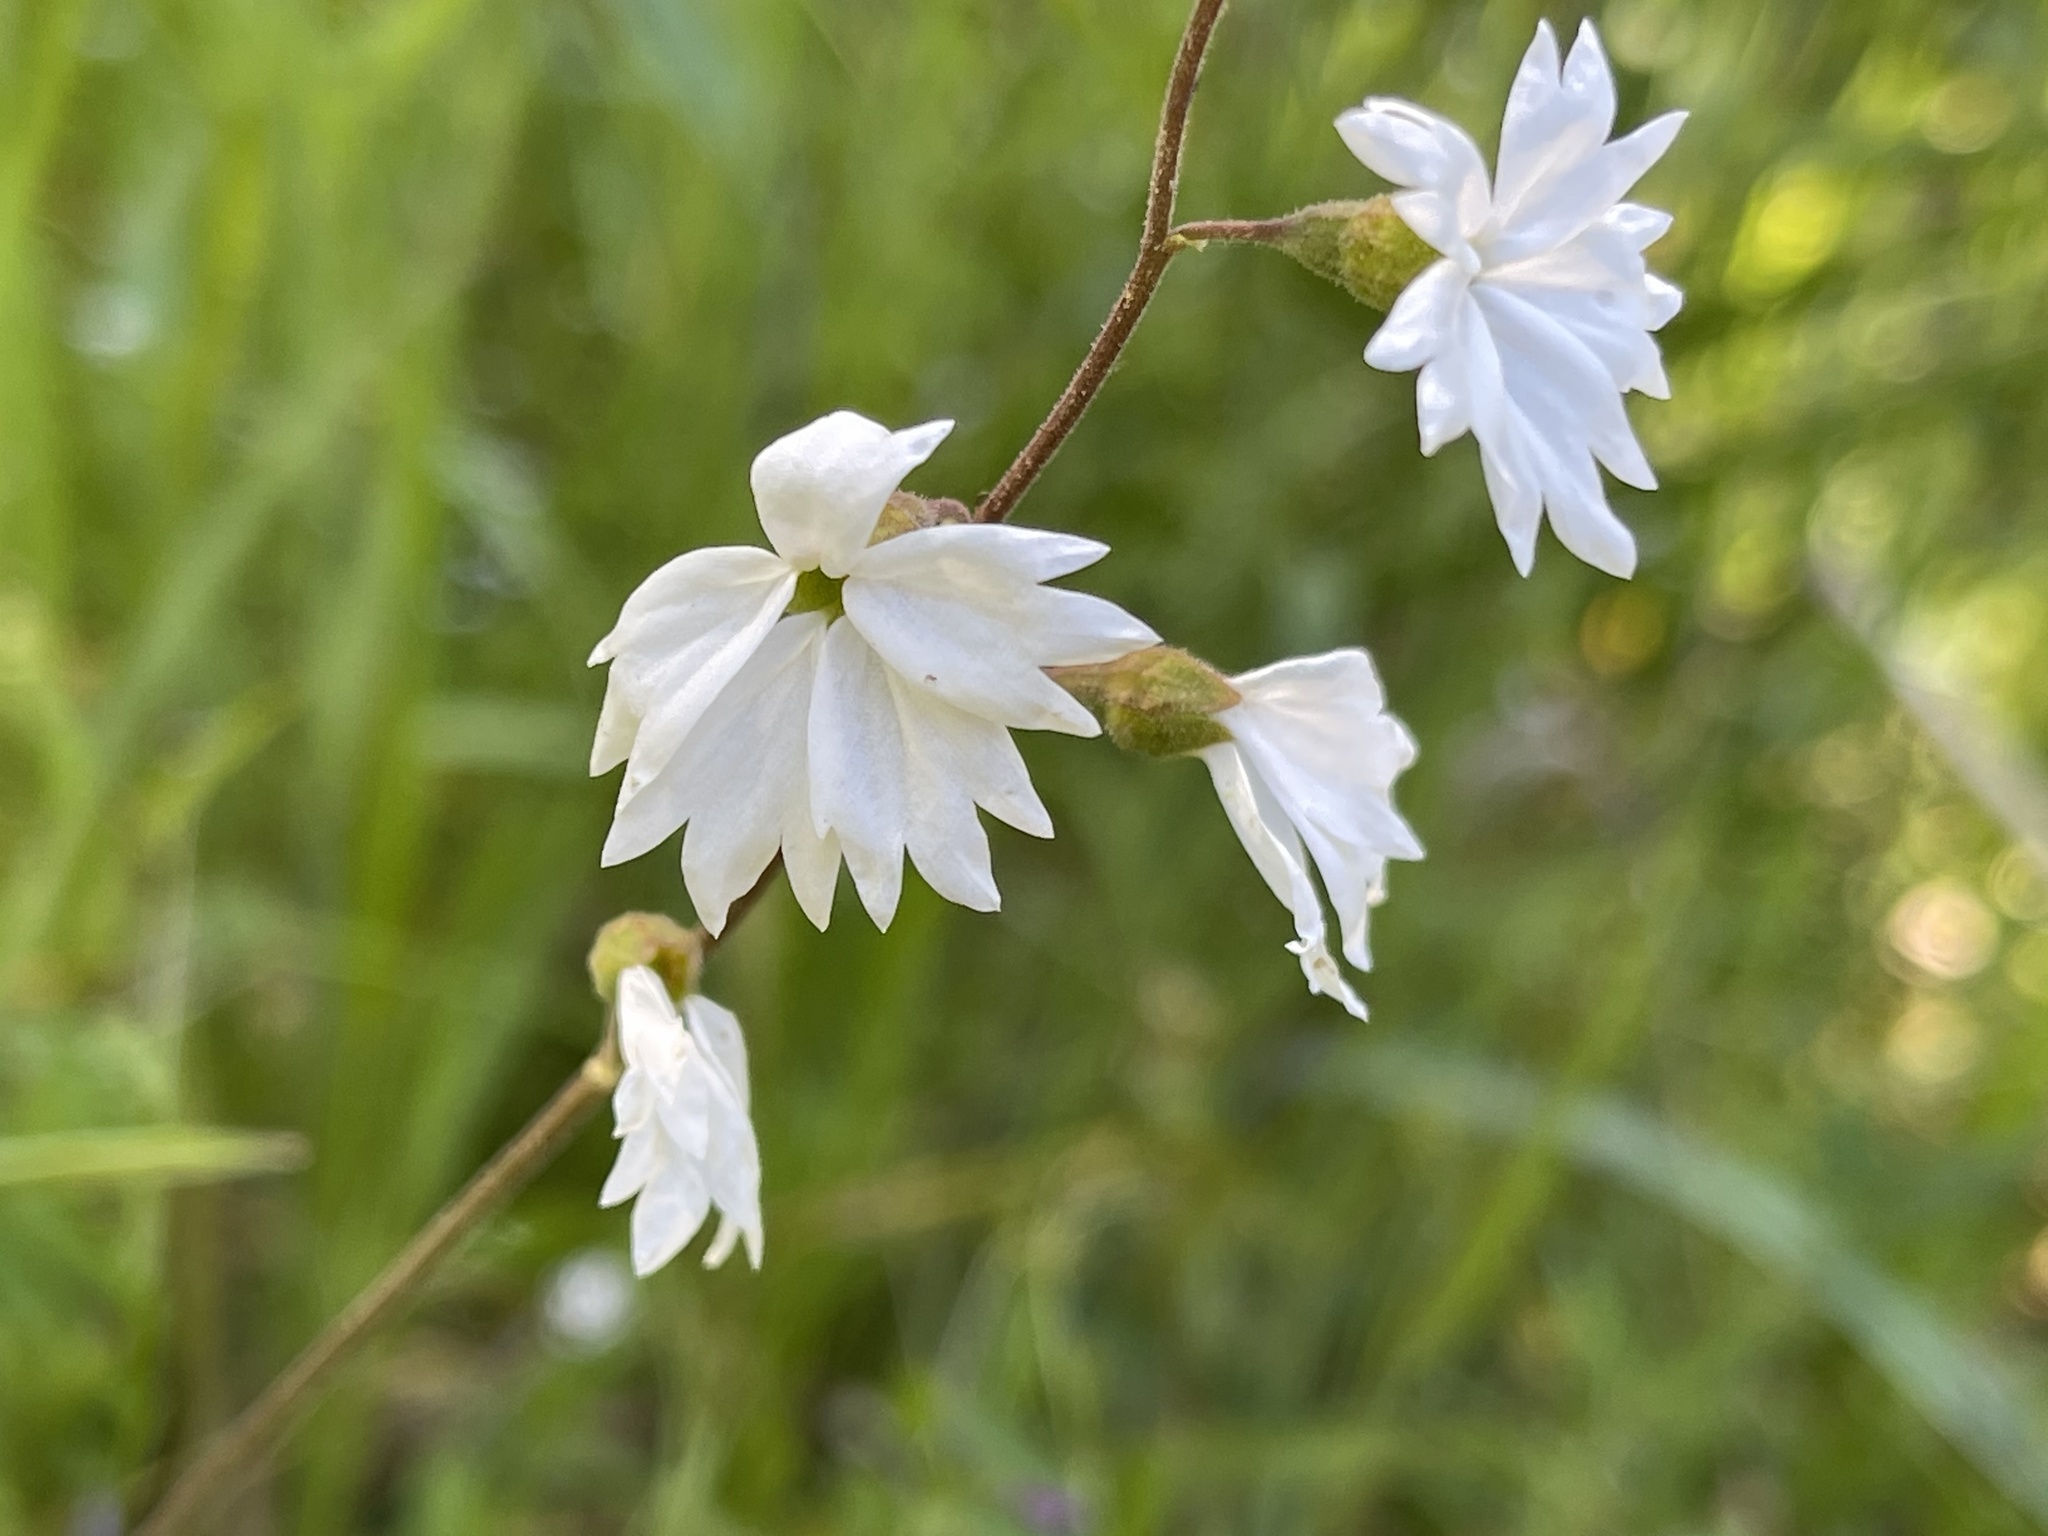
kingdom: Plantae
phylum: Tracheophyta
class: Magnoliopsida
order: Saxifragales
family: Saxifragaceae
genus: Lithophragma
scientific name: Lithophragma affine
